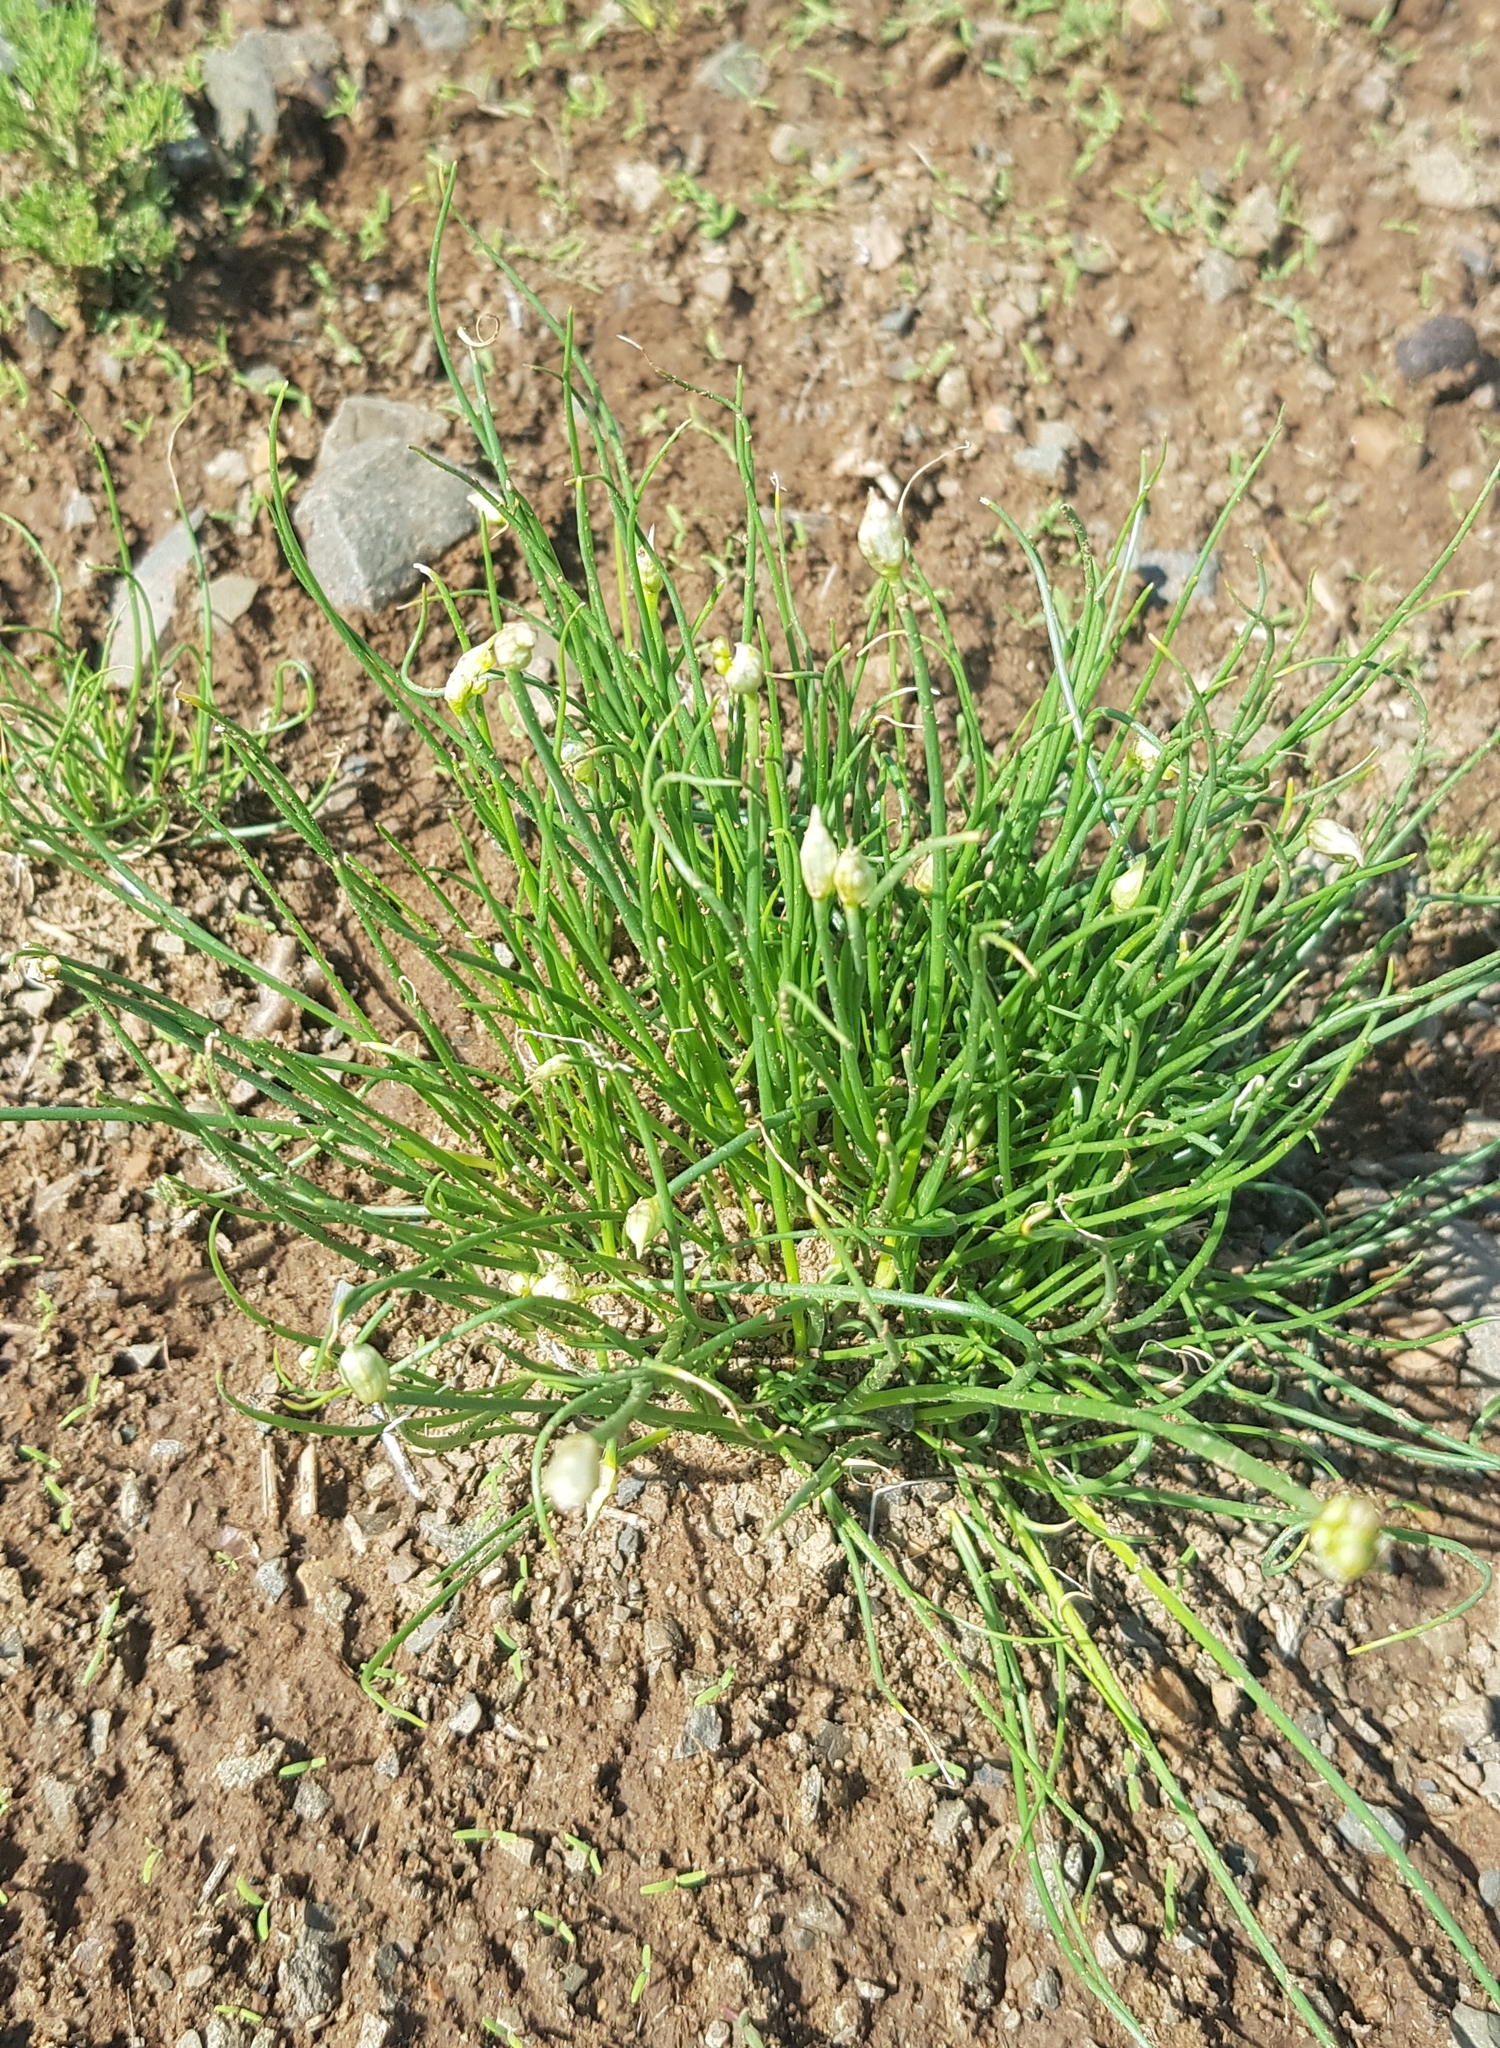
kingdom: Plantae
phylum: Tracheophyta
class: Liliopsida
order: Asparagales
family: Amaryllidaceae
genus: Allium
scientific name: Allium ramosum
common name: Fragrant garlic
